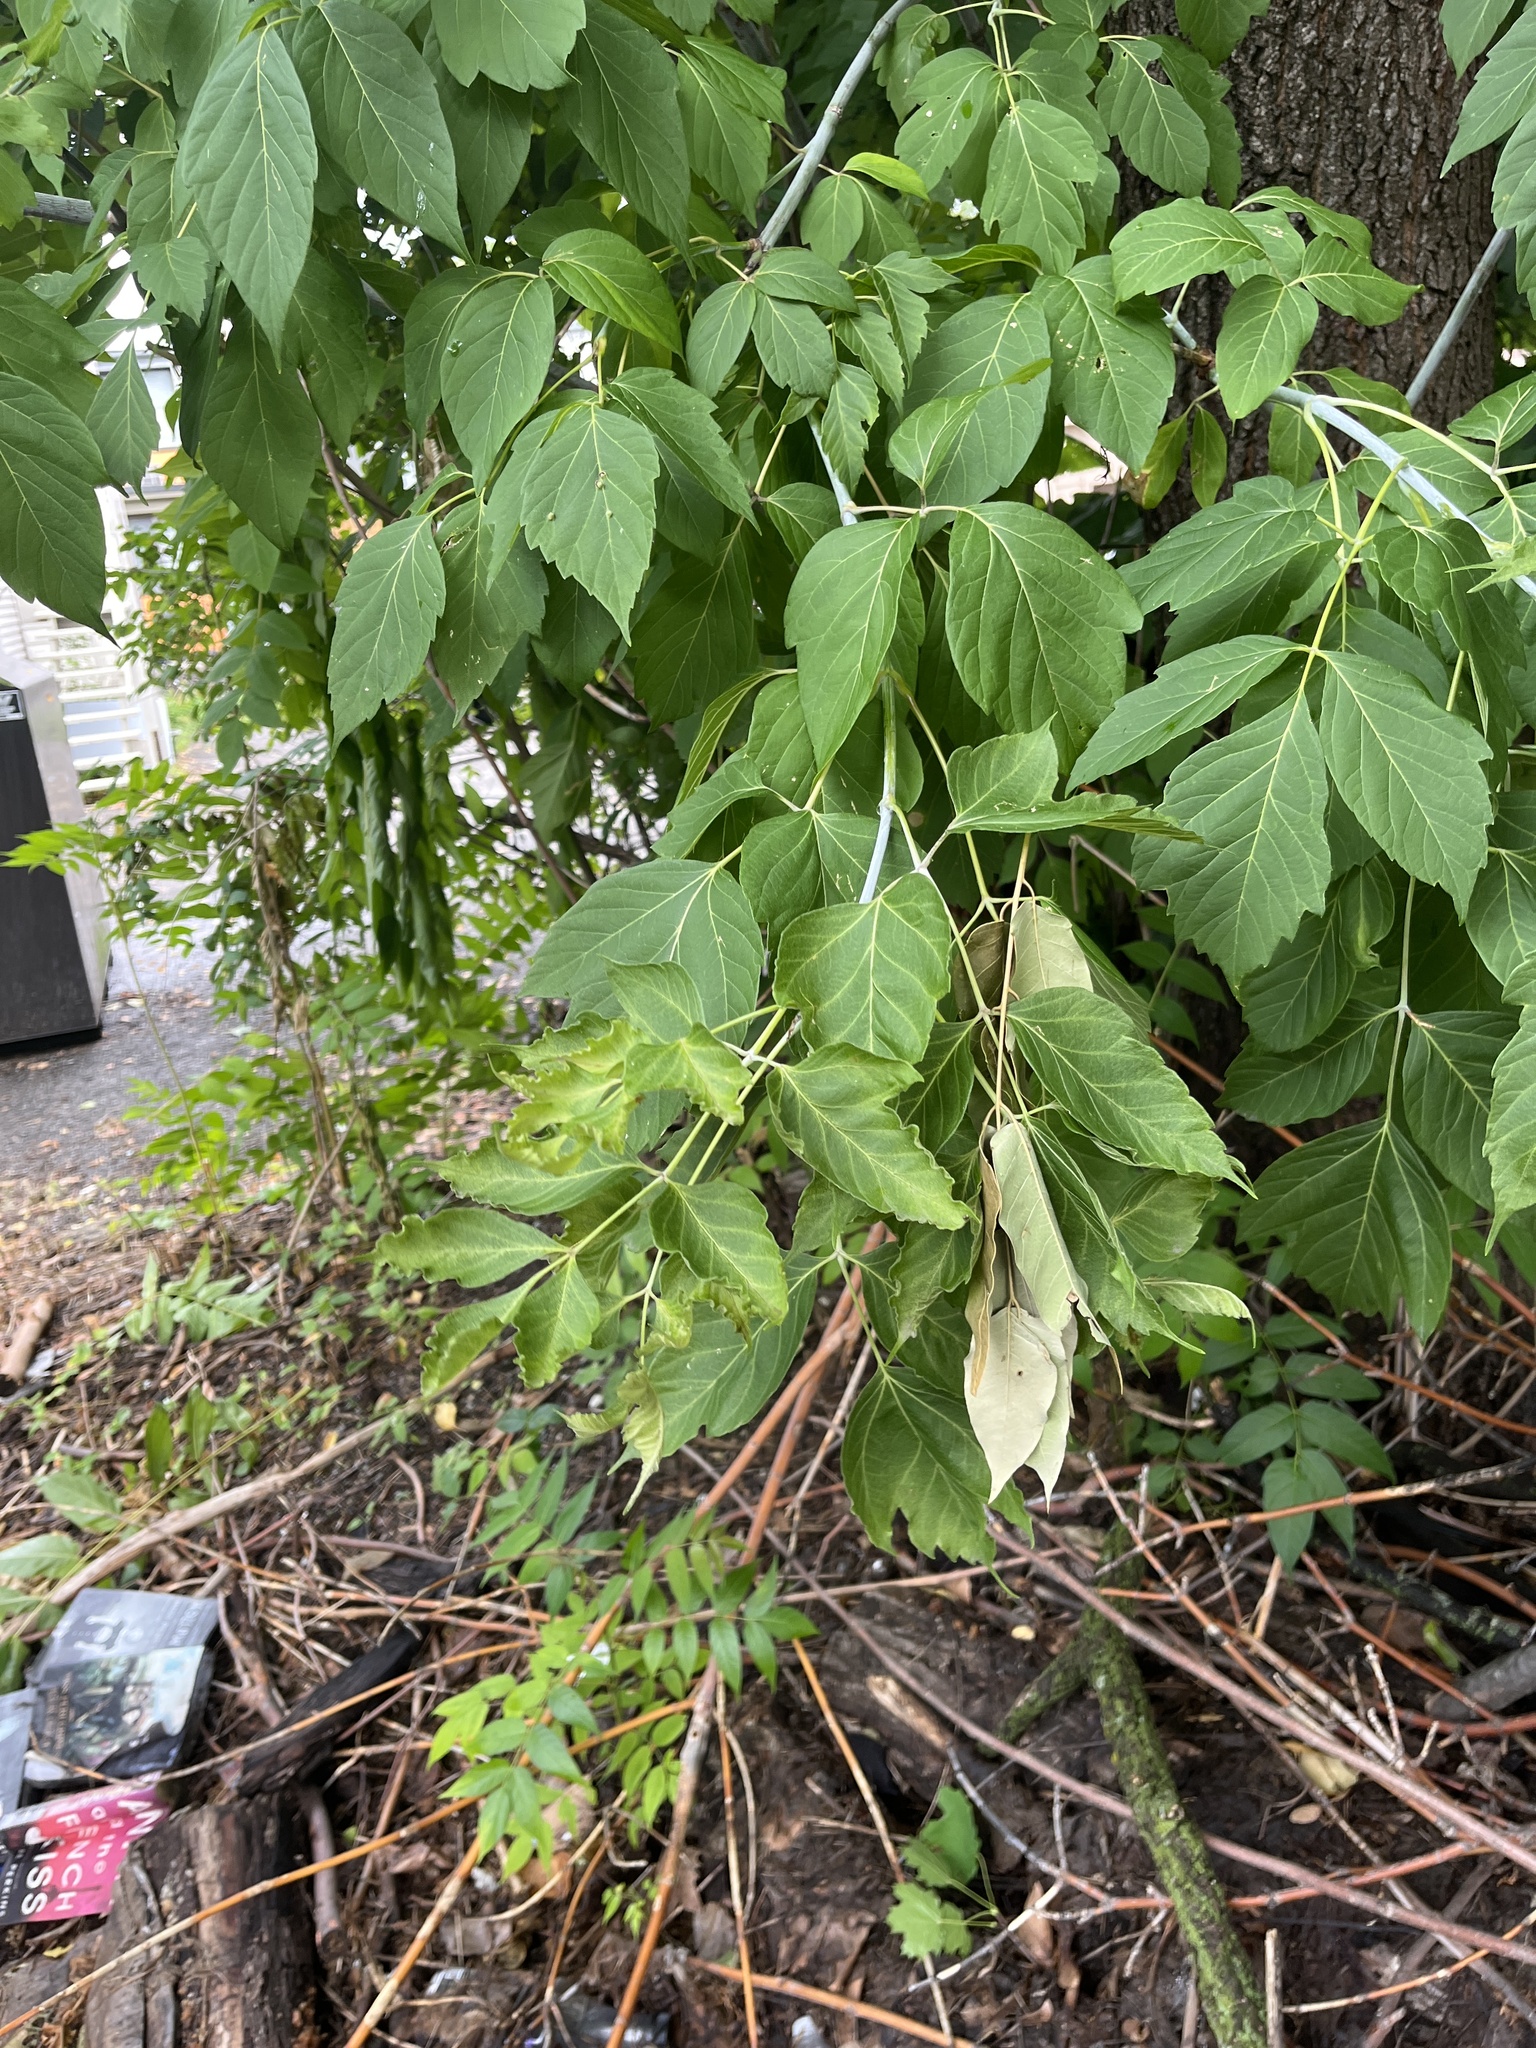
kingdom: Plantae
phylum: Tracheophyta
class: Magnoliopsida
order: Sapindales
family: Sapindaceae
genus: Acer
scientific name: Acer negundo
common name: Ashleaf maple
